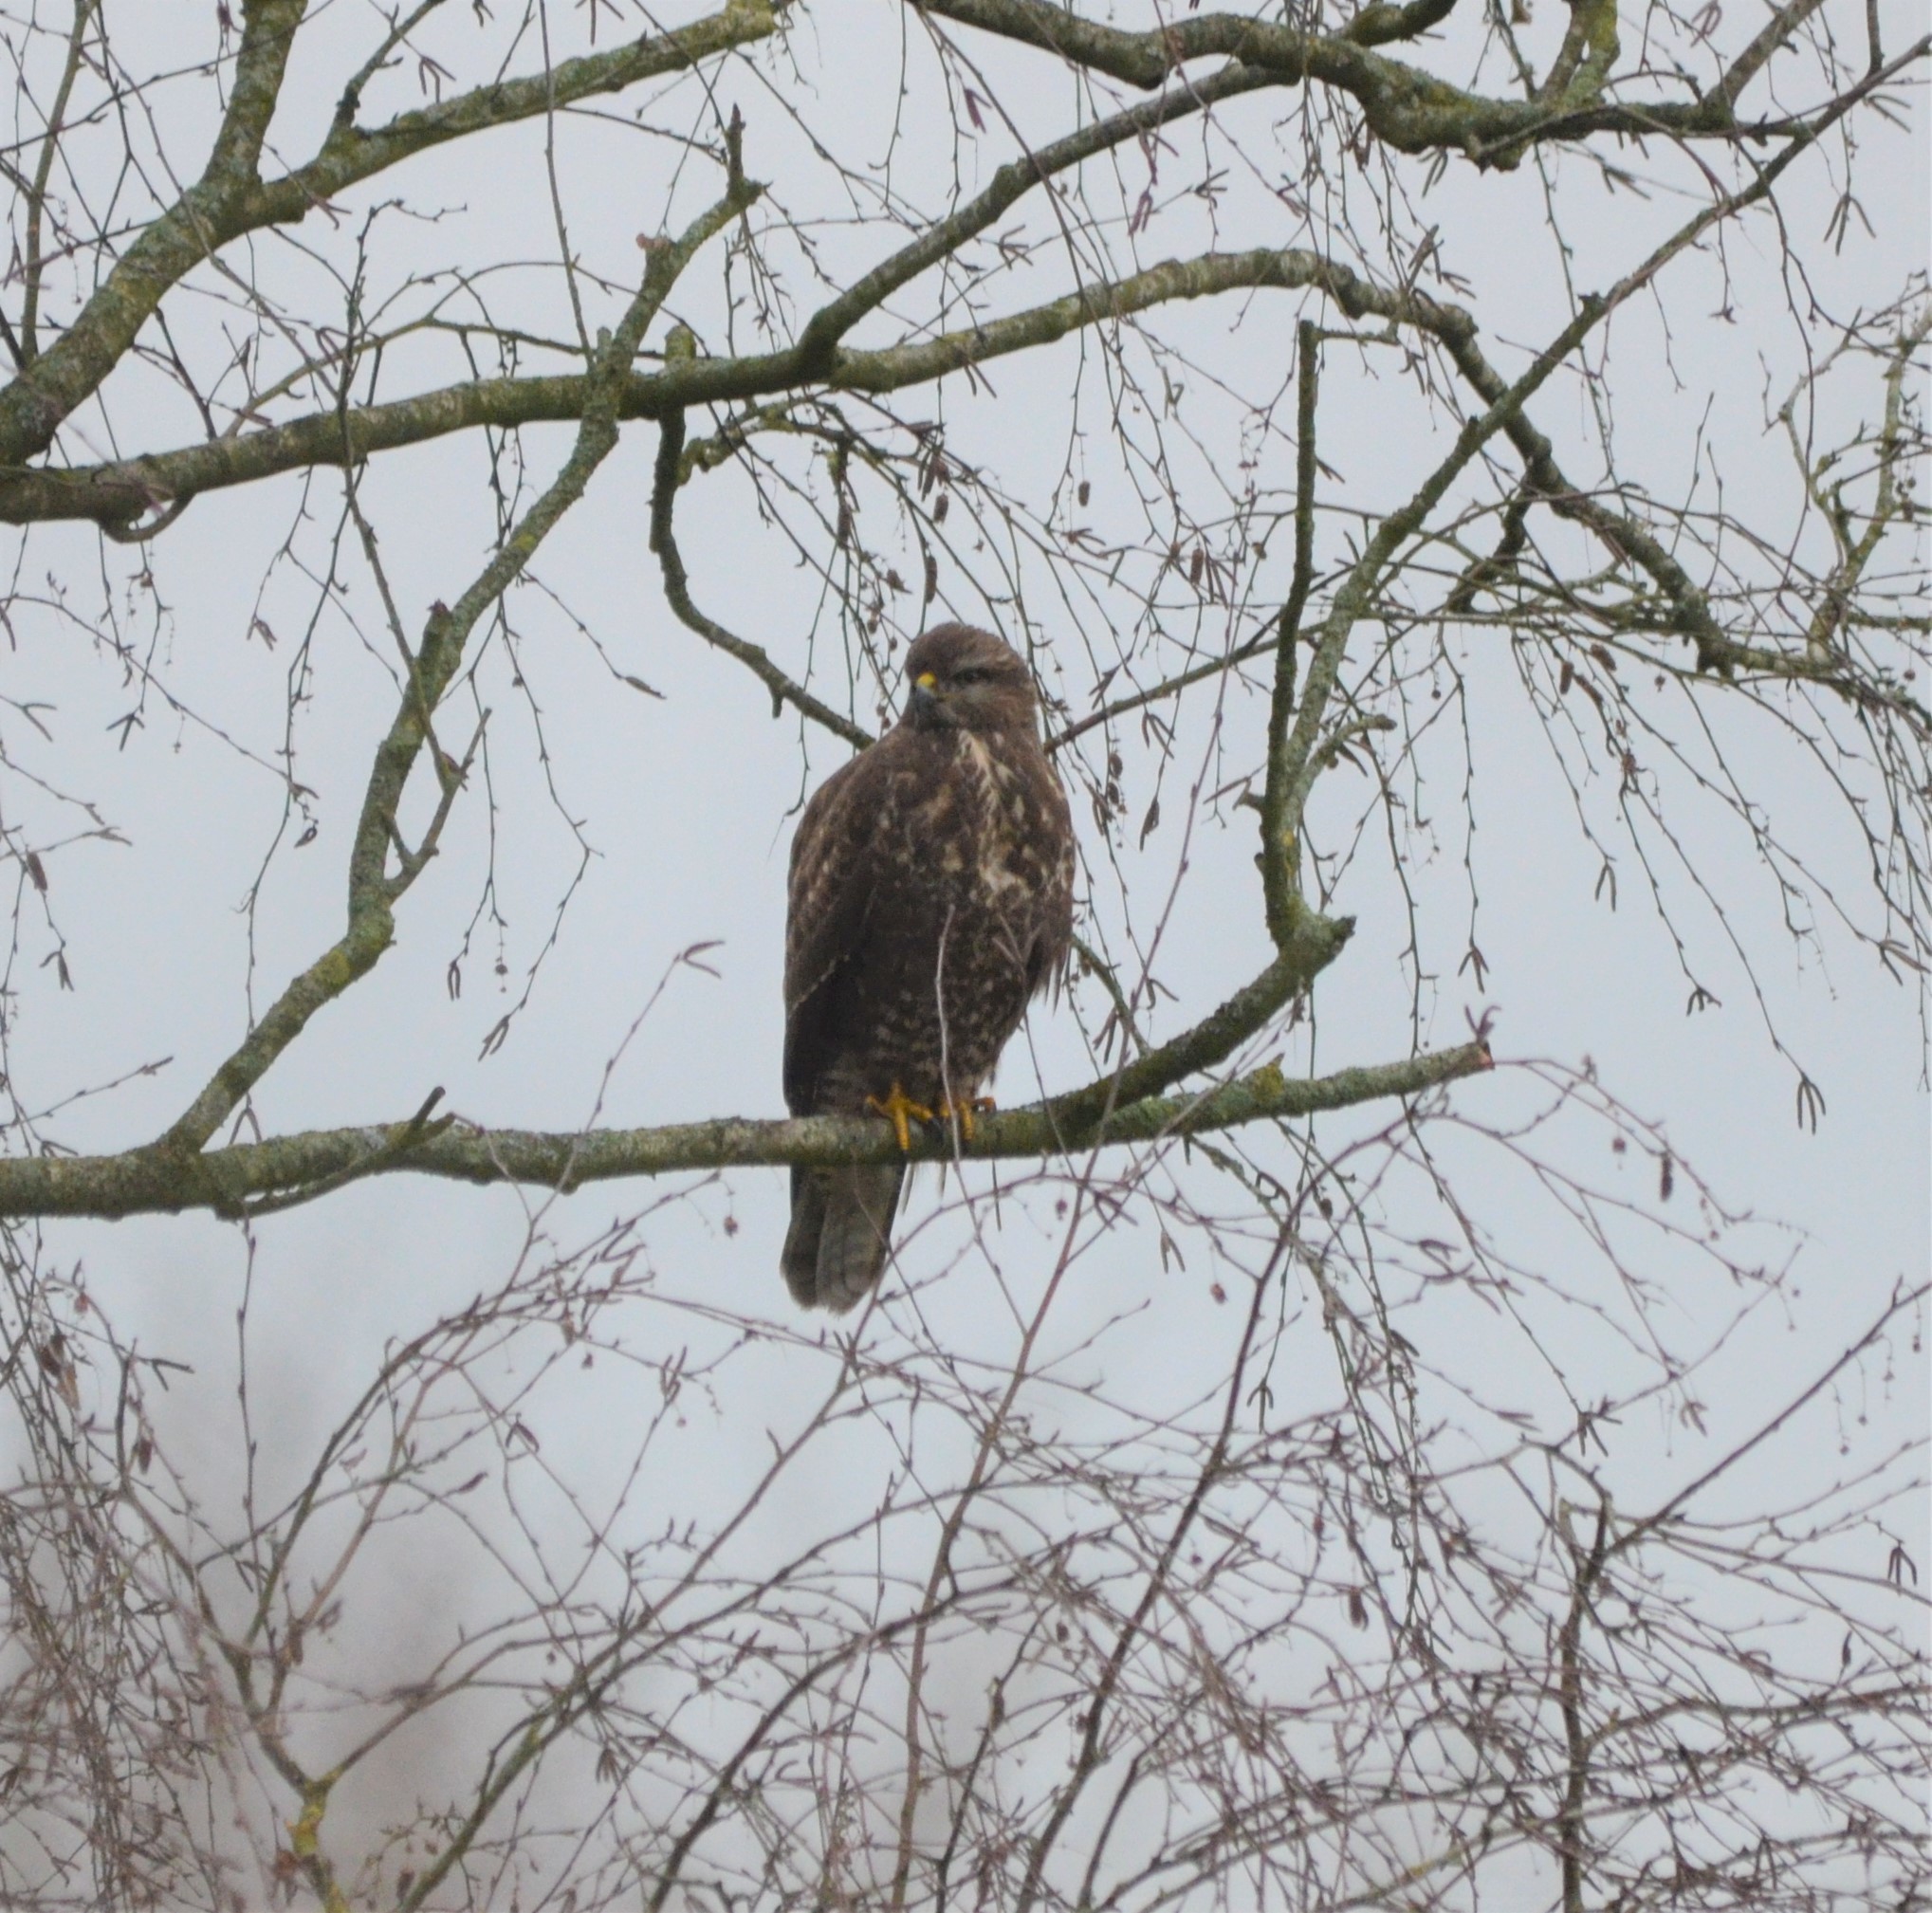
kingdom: Animalia
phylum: Chordata
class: Aves
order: Accipitriformes
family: Accipitridae
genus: Buteo
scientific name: Buteo buteo
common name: Common buzzard
